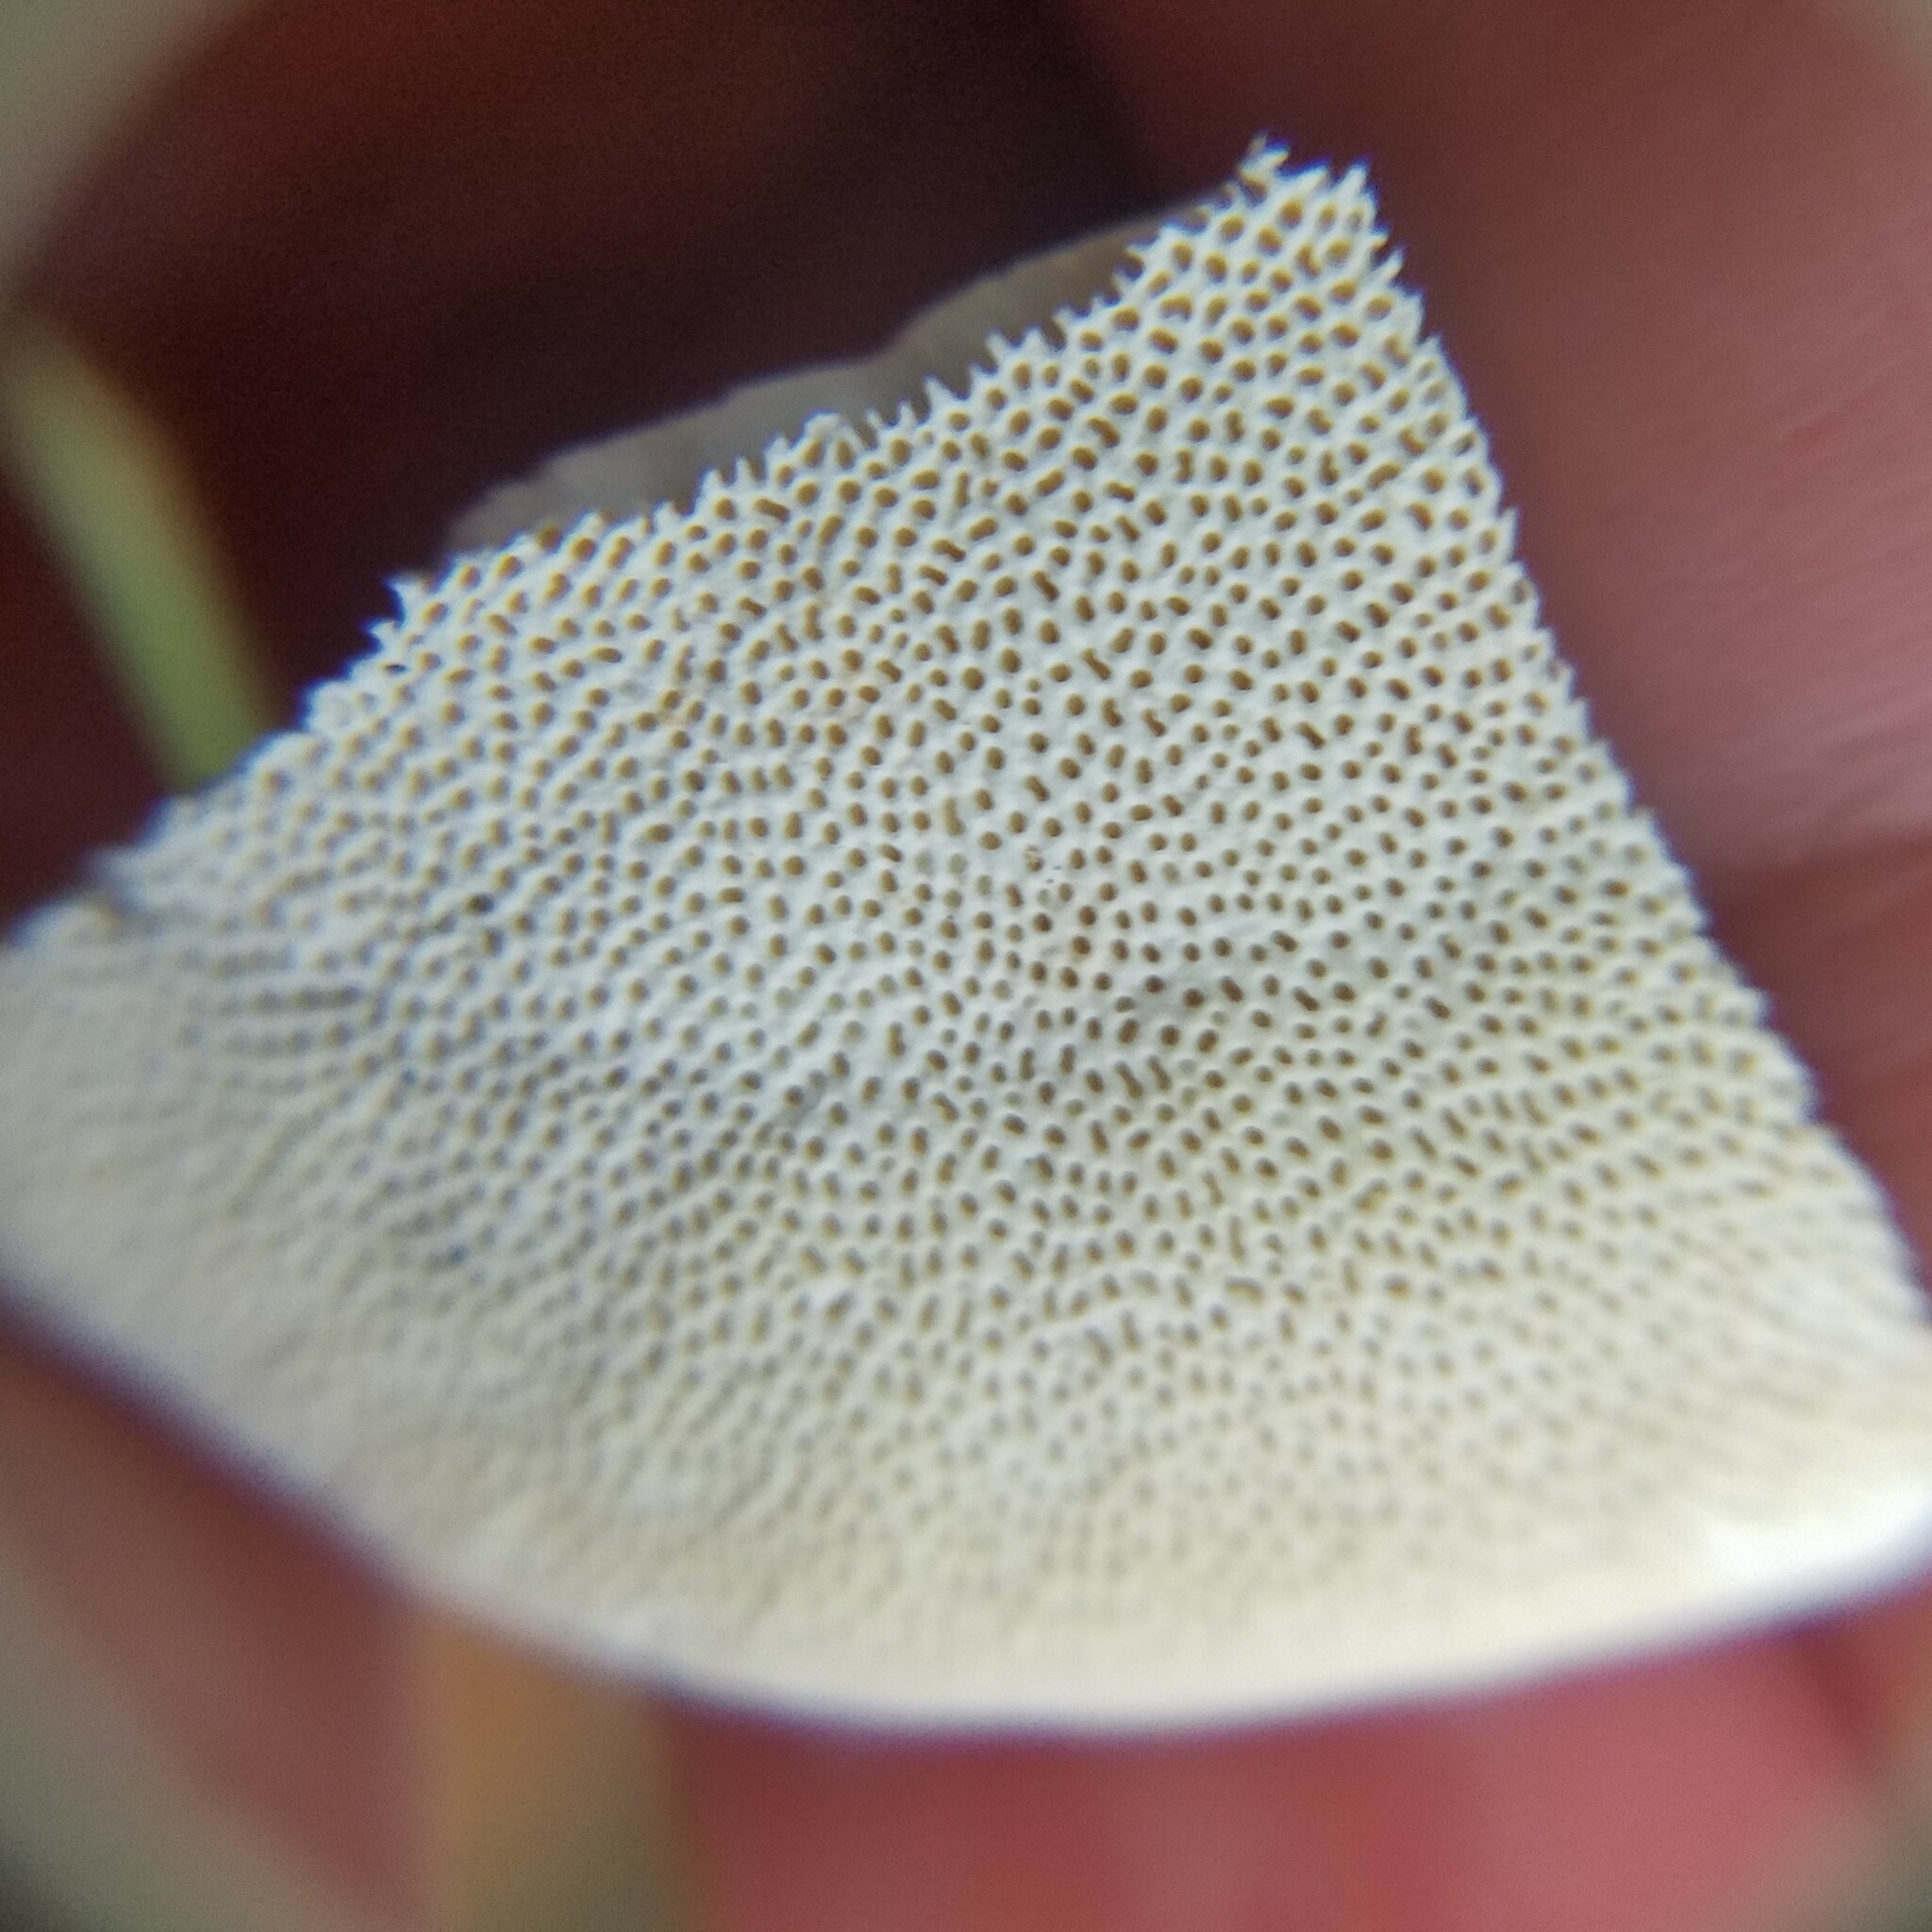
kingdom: Fungi
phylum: Basidiomycota
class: Agaricomycetes
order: Polyporales
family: Polyporaceae
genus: Trametes
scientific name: Trametes
